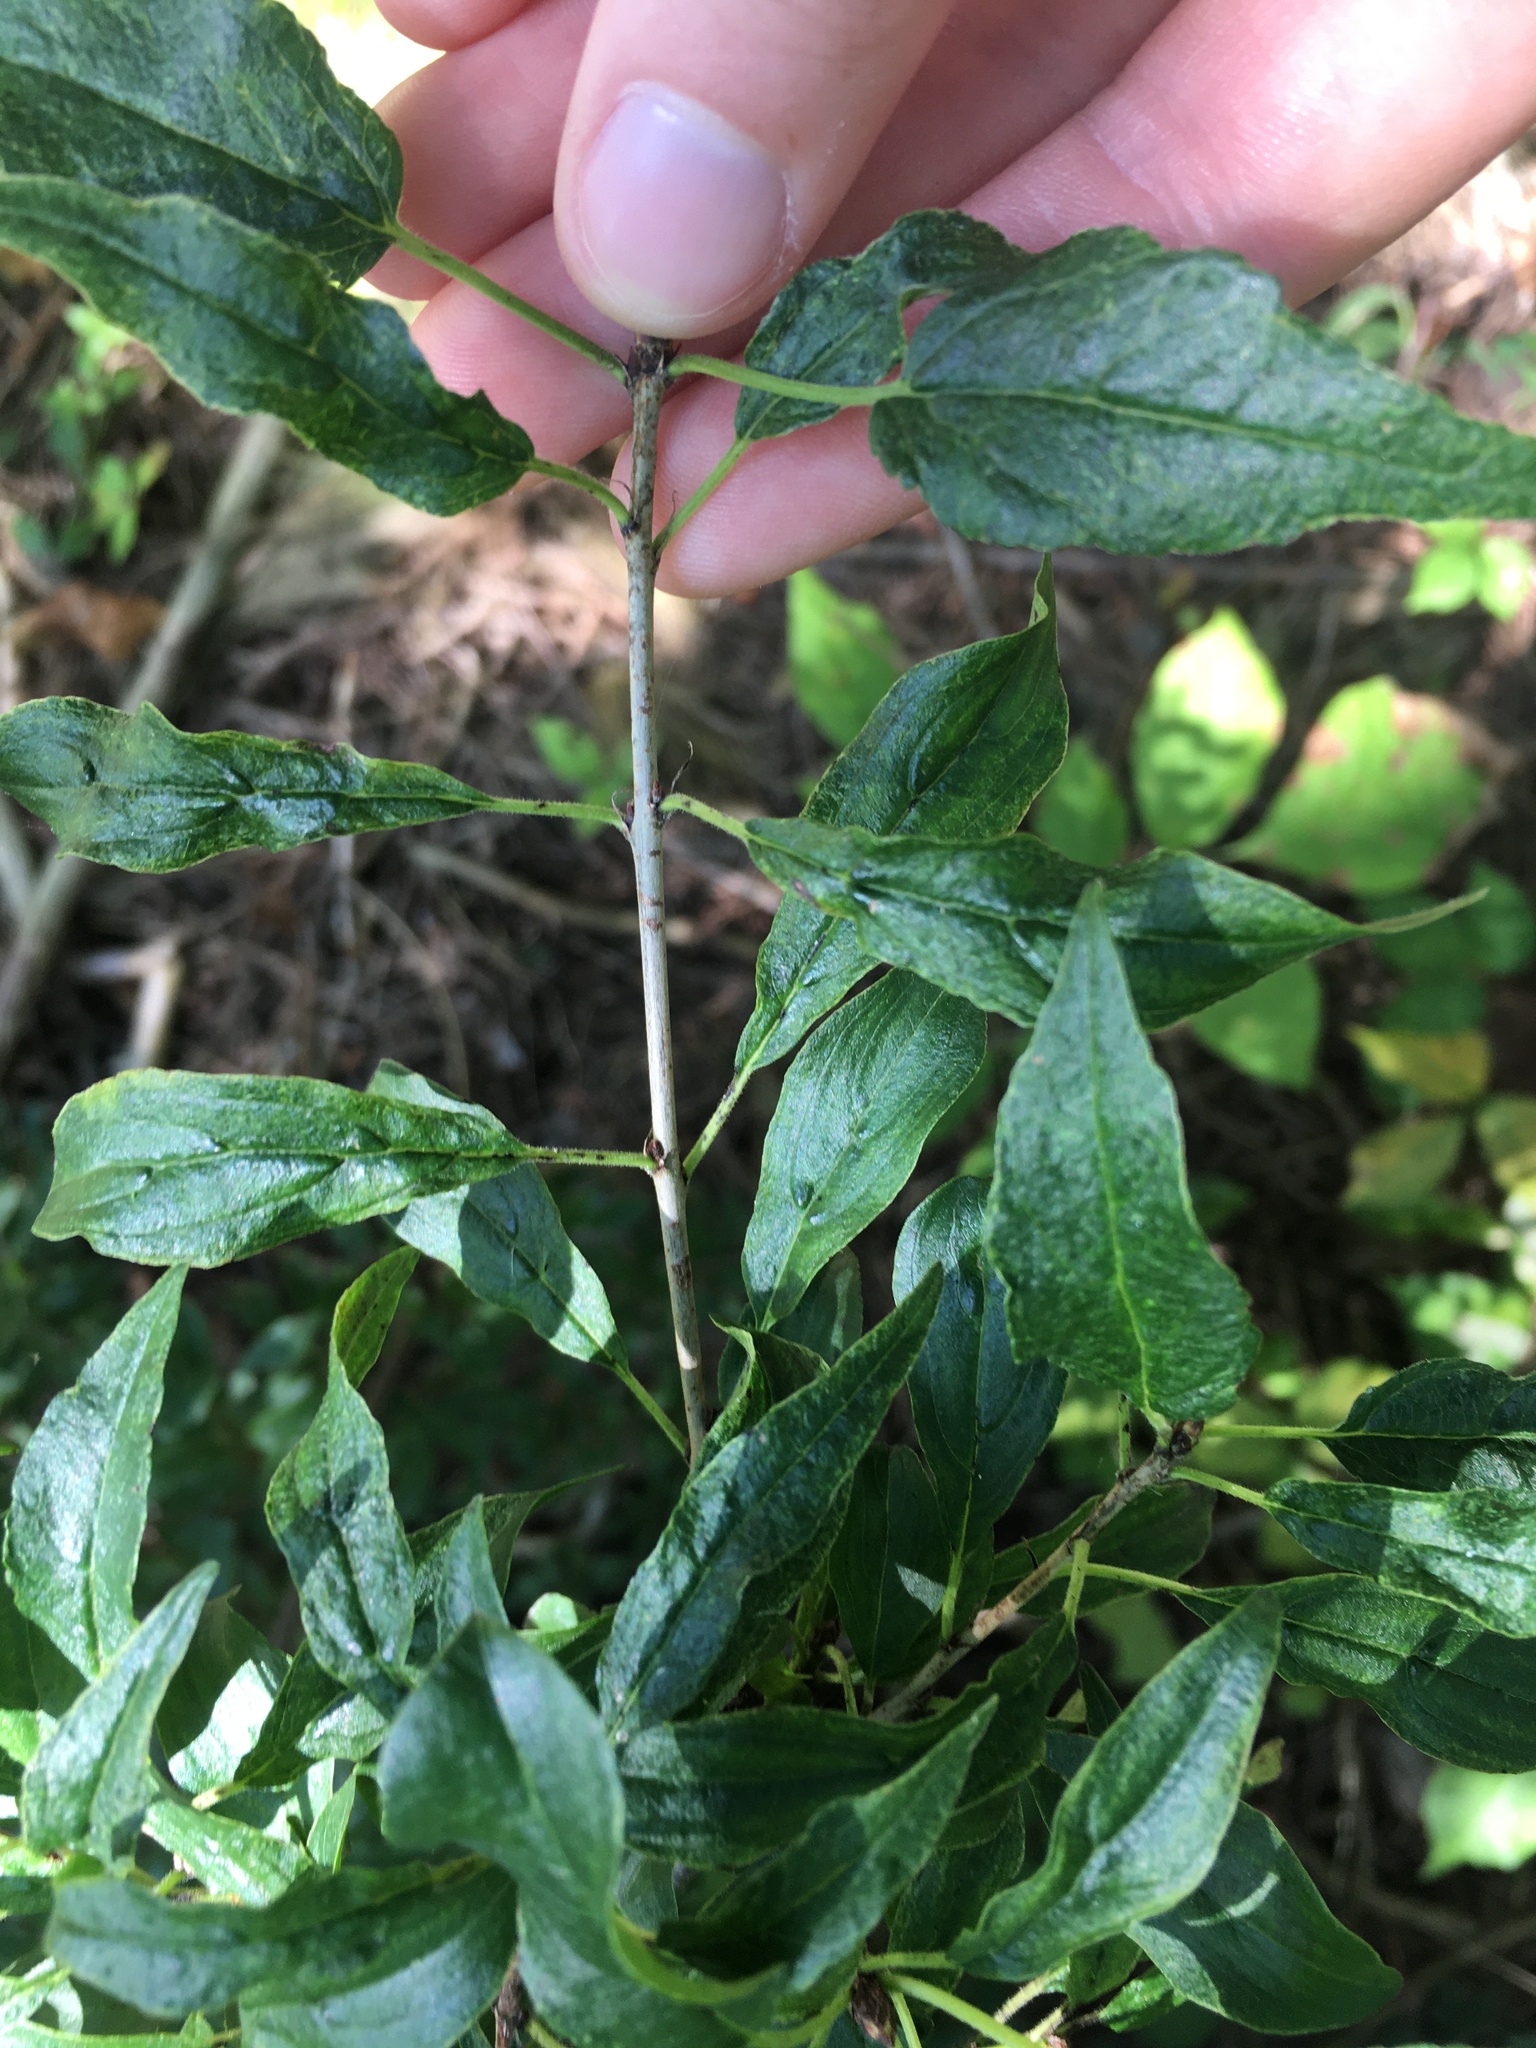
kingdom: Plantae
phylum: Tracheophyta
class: Magnoliopsida
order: Rosales
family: Rhamnaceae
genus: Rhamnus
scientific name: Rhamnus cathartica
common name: Common buckthorn
